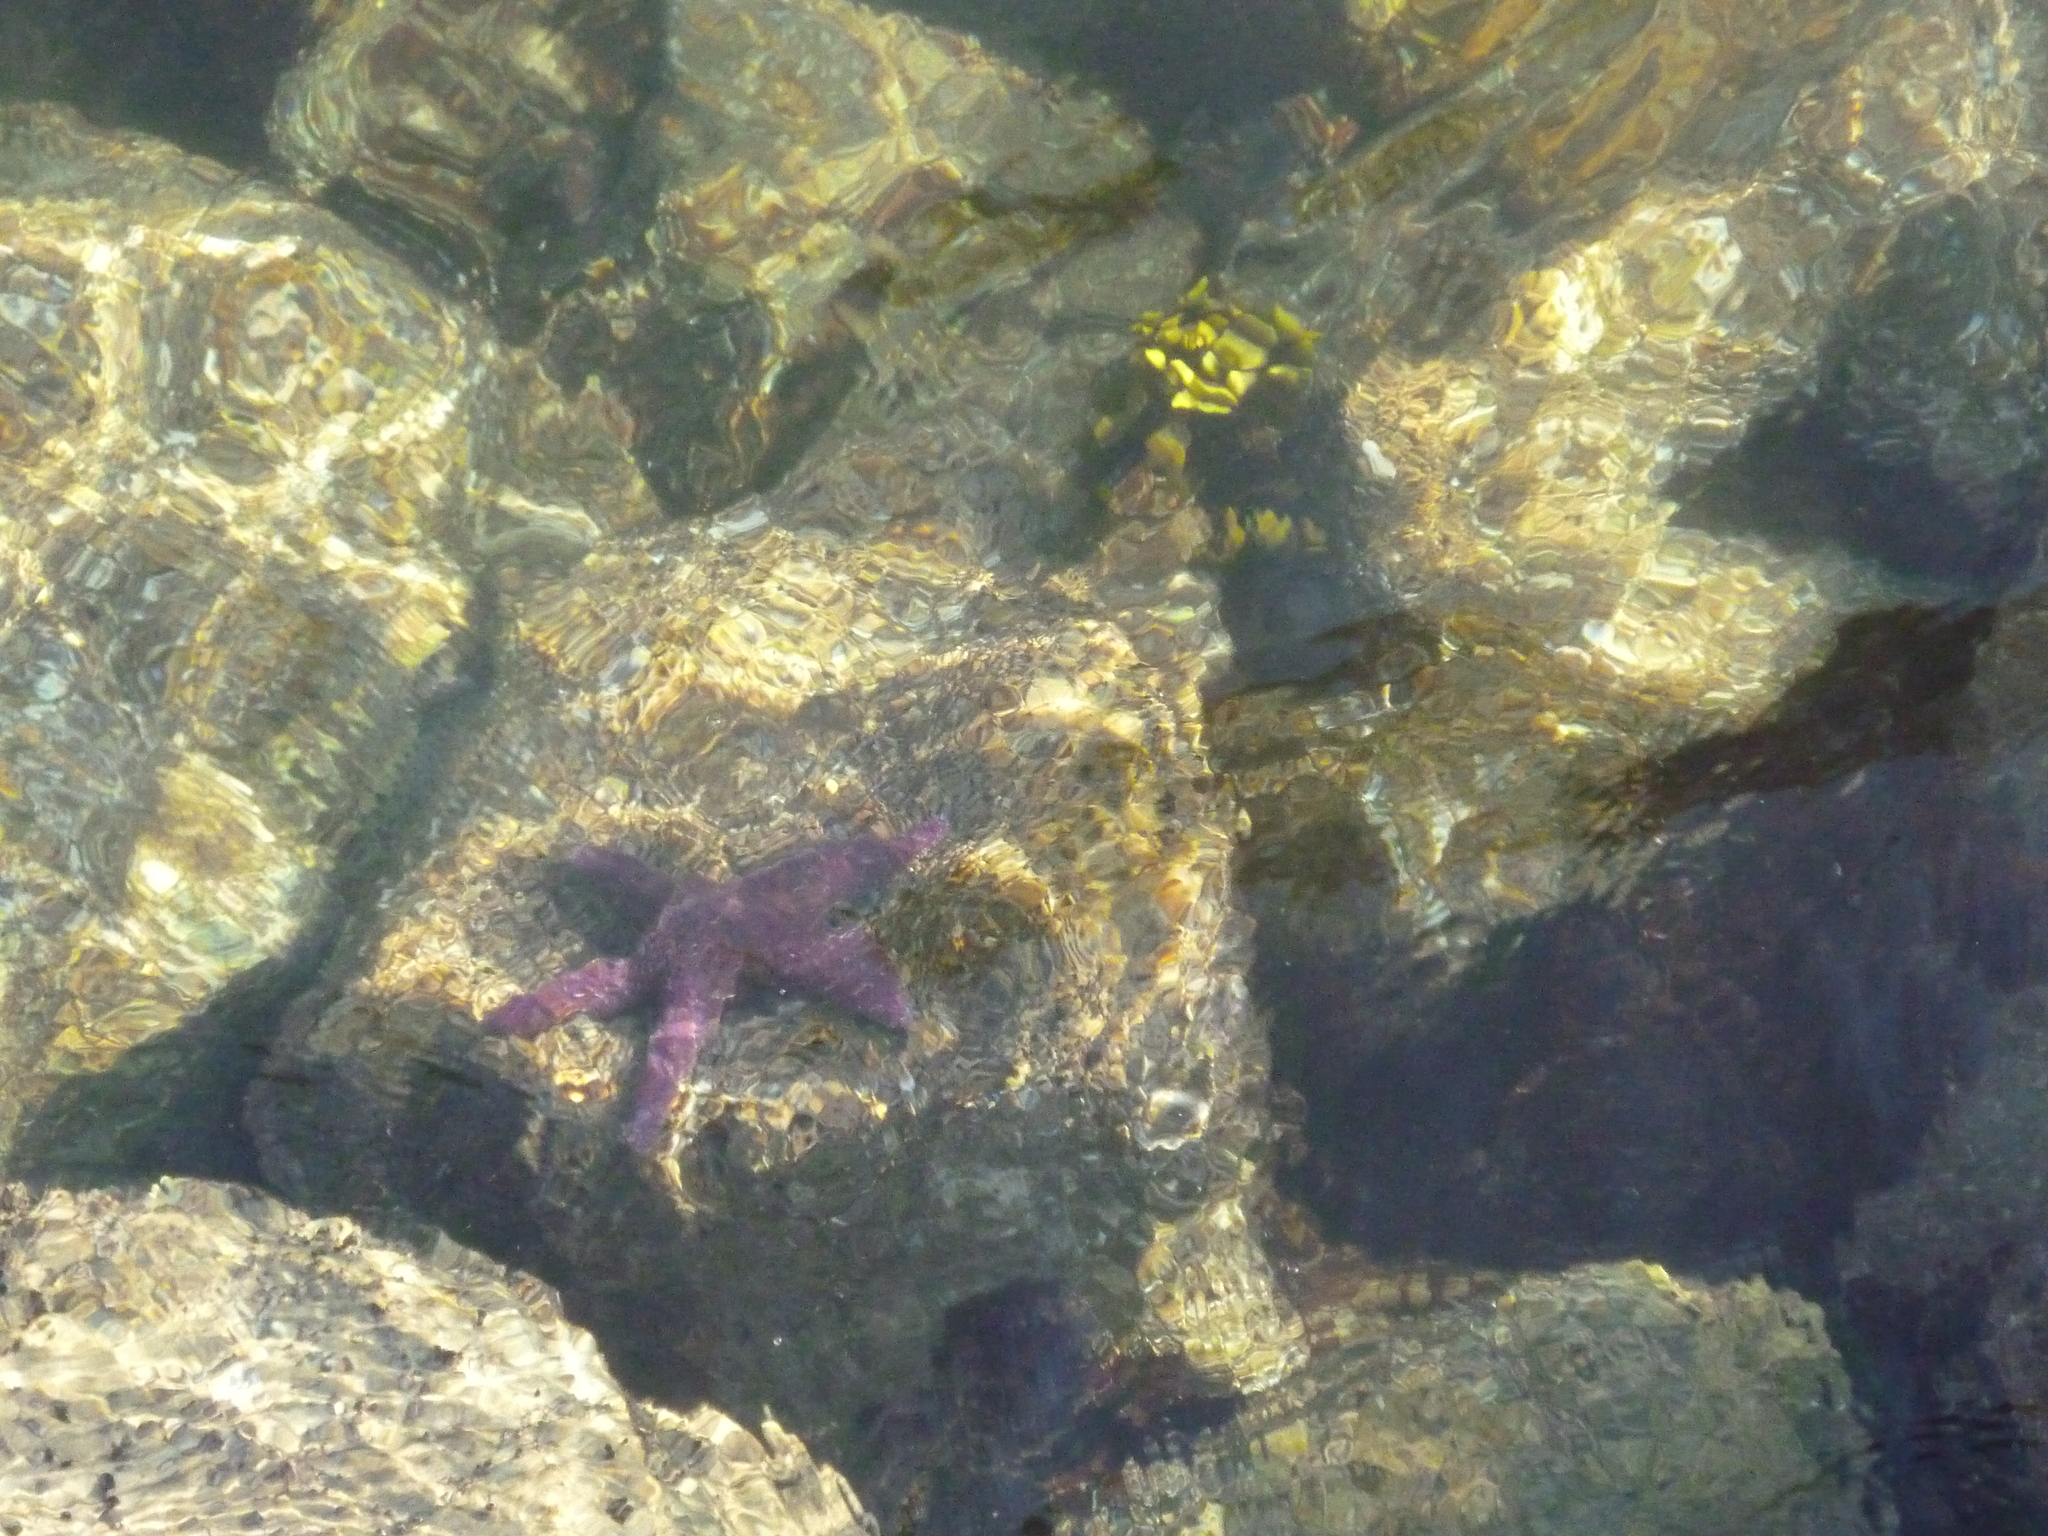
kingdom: Animalia
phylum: Echinodermata
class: Asteroidea
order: Forcipulatida
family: Asteriidae
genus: Pisaster
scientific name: Pisaster ochraceus
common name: Ochre stars
